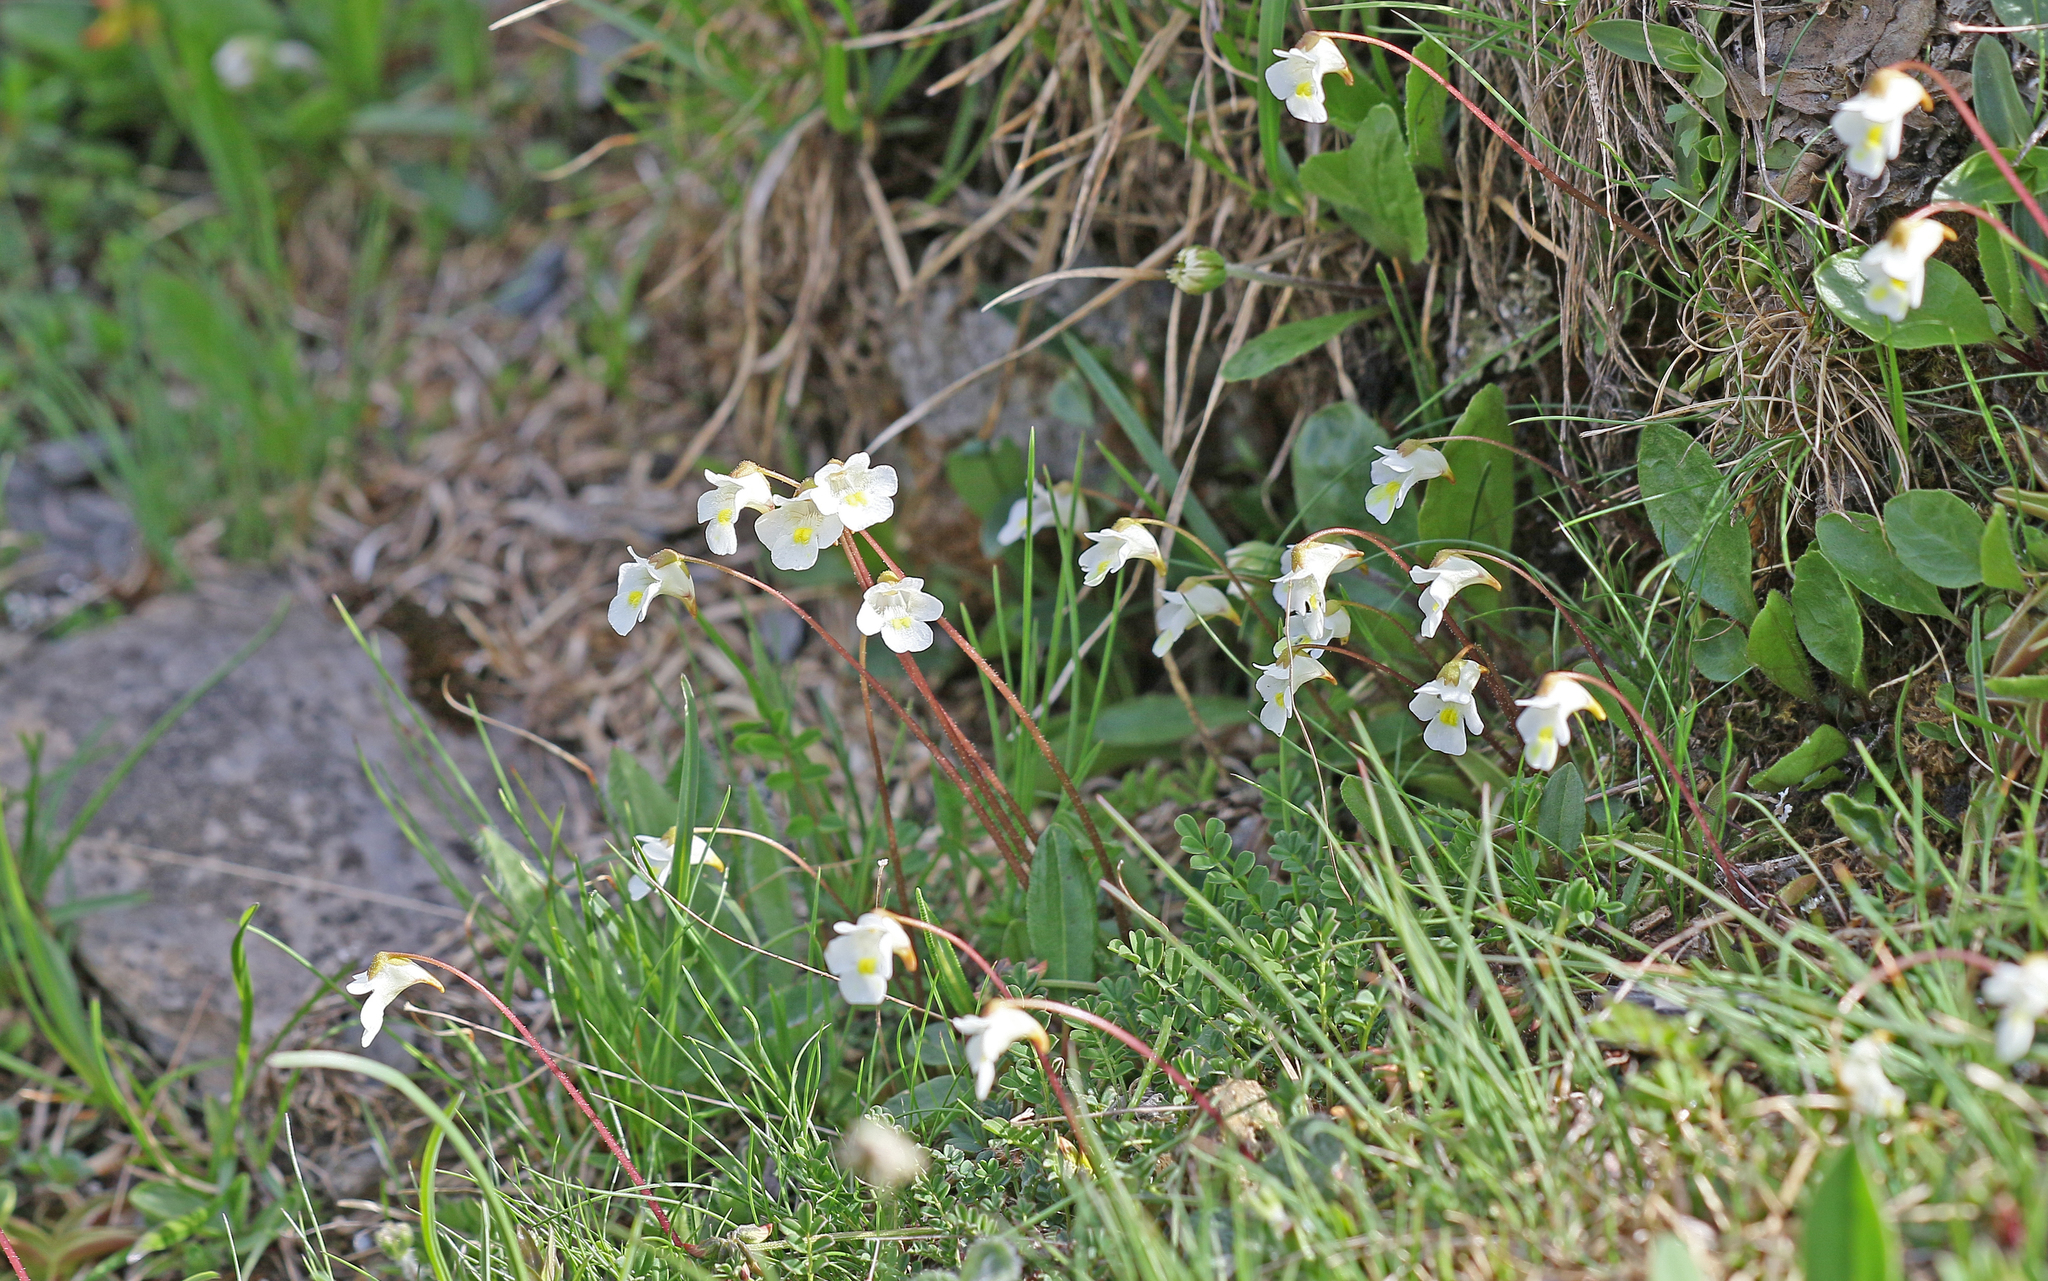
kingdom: Plantae
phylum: Tracheophyta
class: Magnoliopsida
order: Lamiales
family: Lentibulariaceae
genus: Pinguicula
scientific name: Pinguicula alpina
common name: Alpine butterwort
